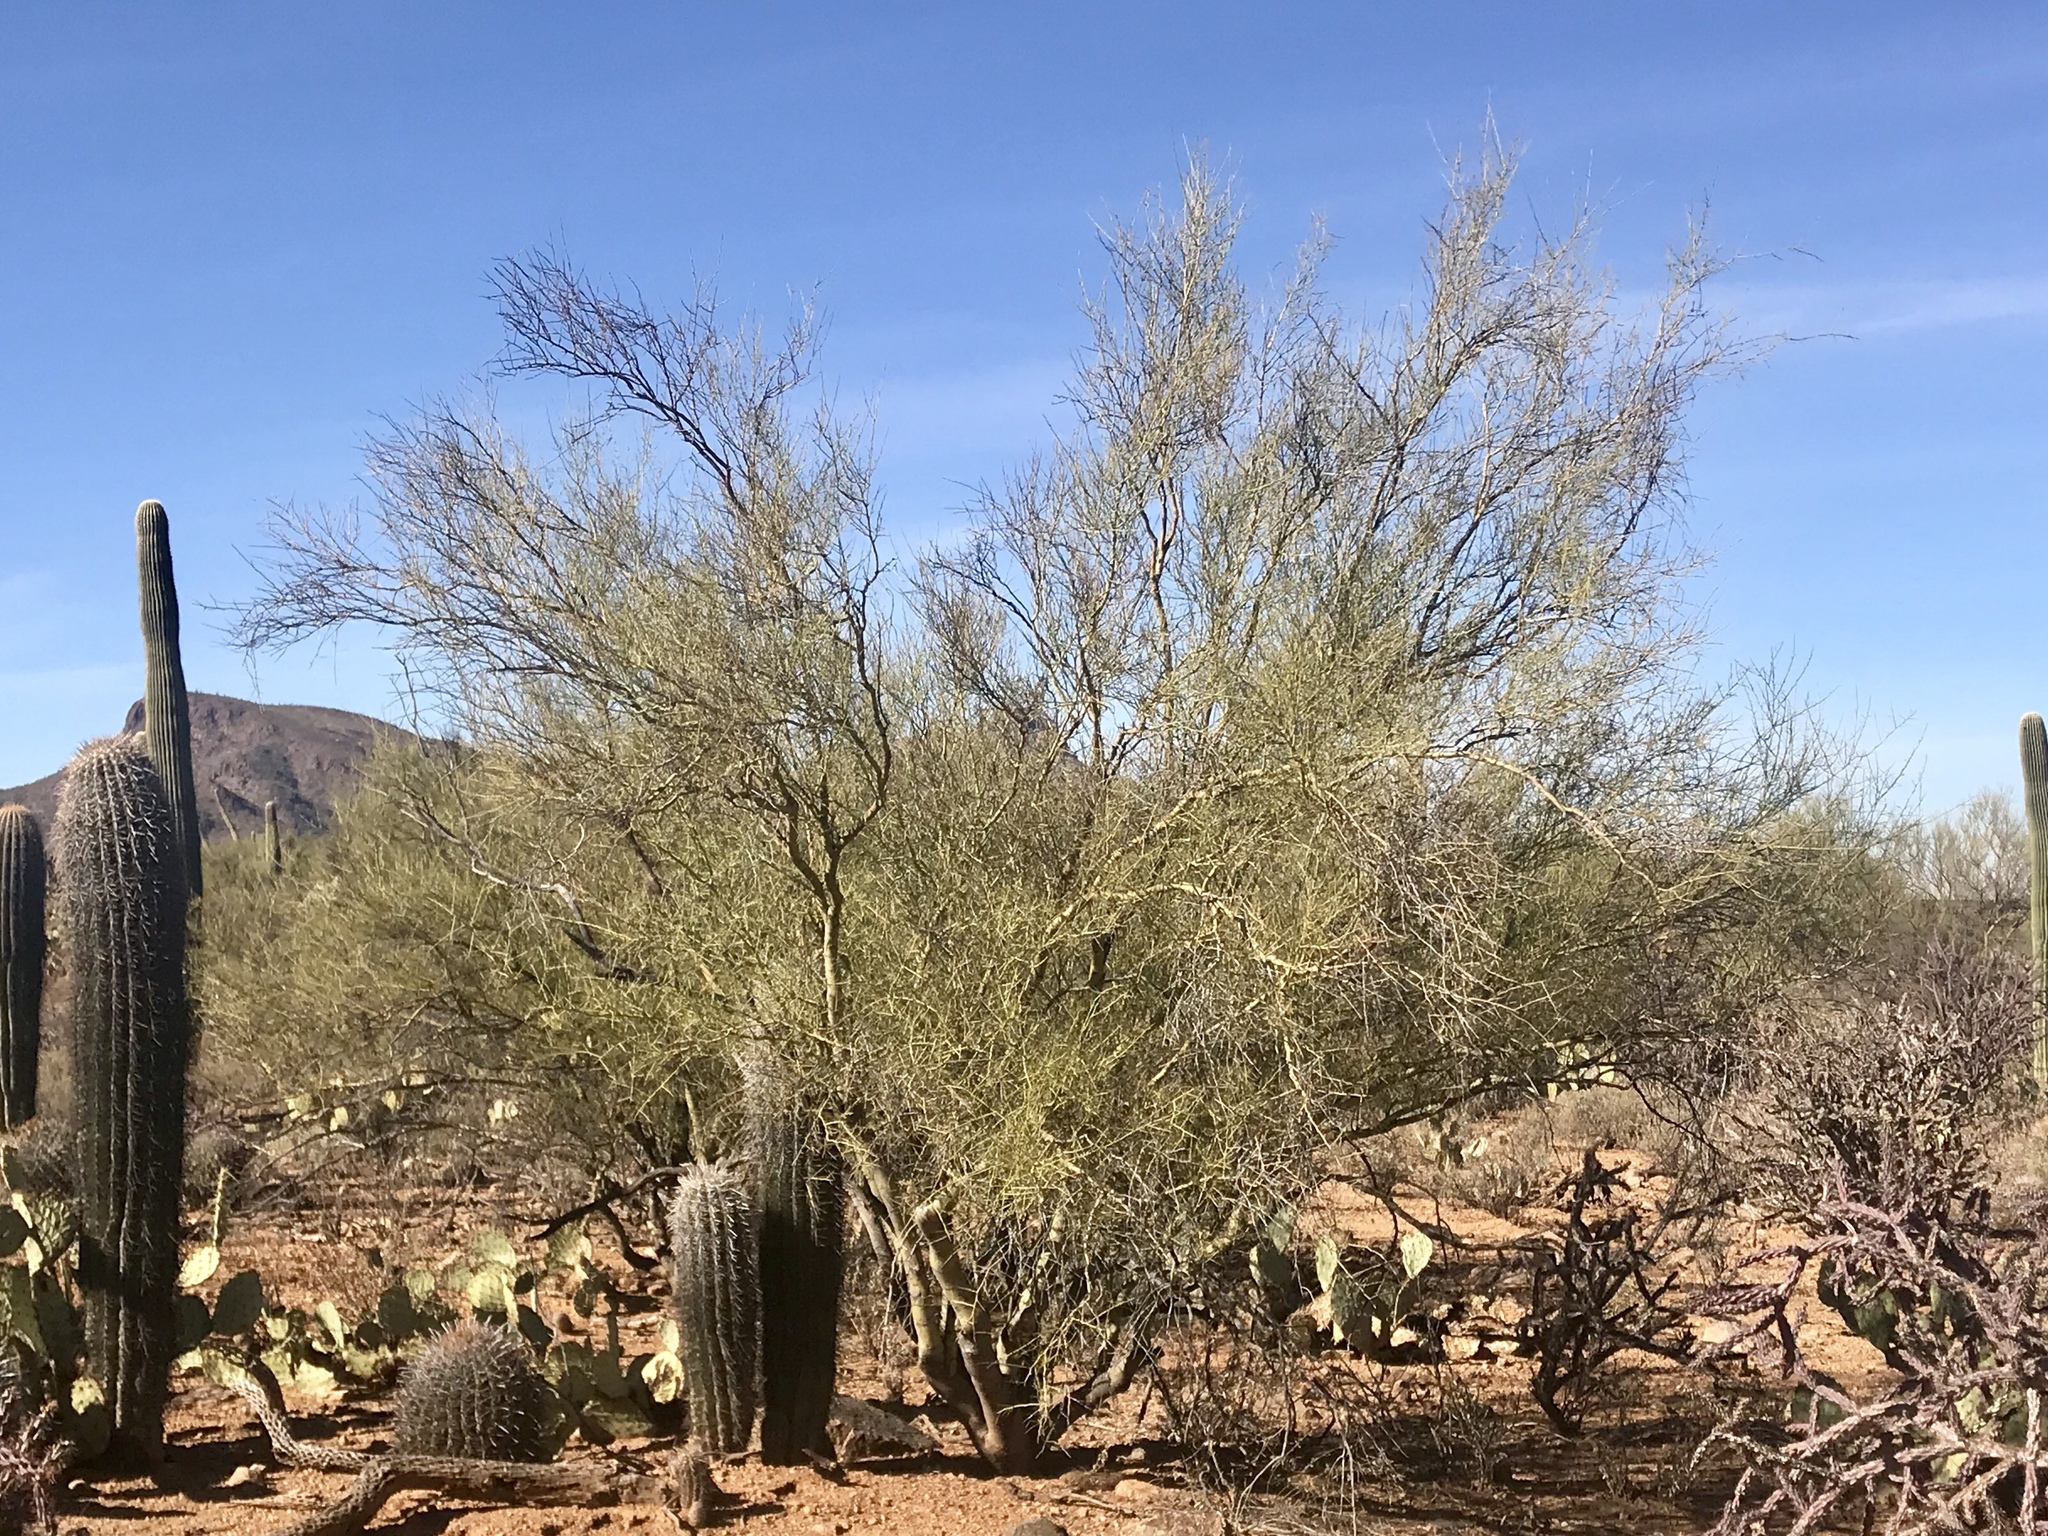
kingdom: Plantae
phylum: Tracheophyta
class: Magnoliopsida
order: Fabales
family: Fabaceae
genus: Parkinsonia
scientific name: Parkinsonia microphylla
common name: Yellow paloverde
